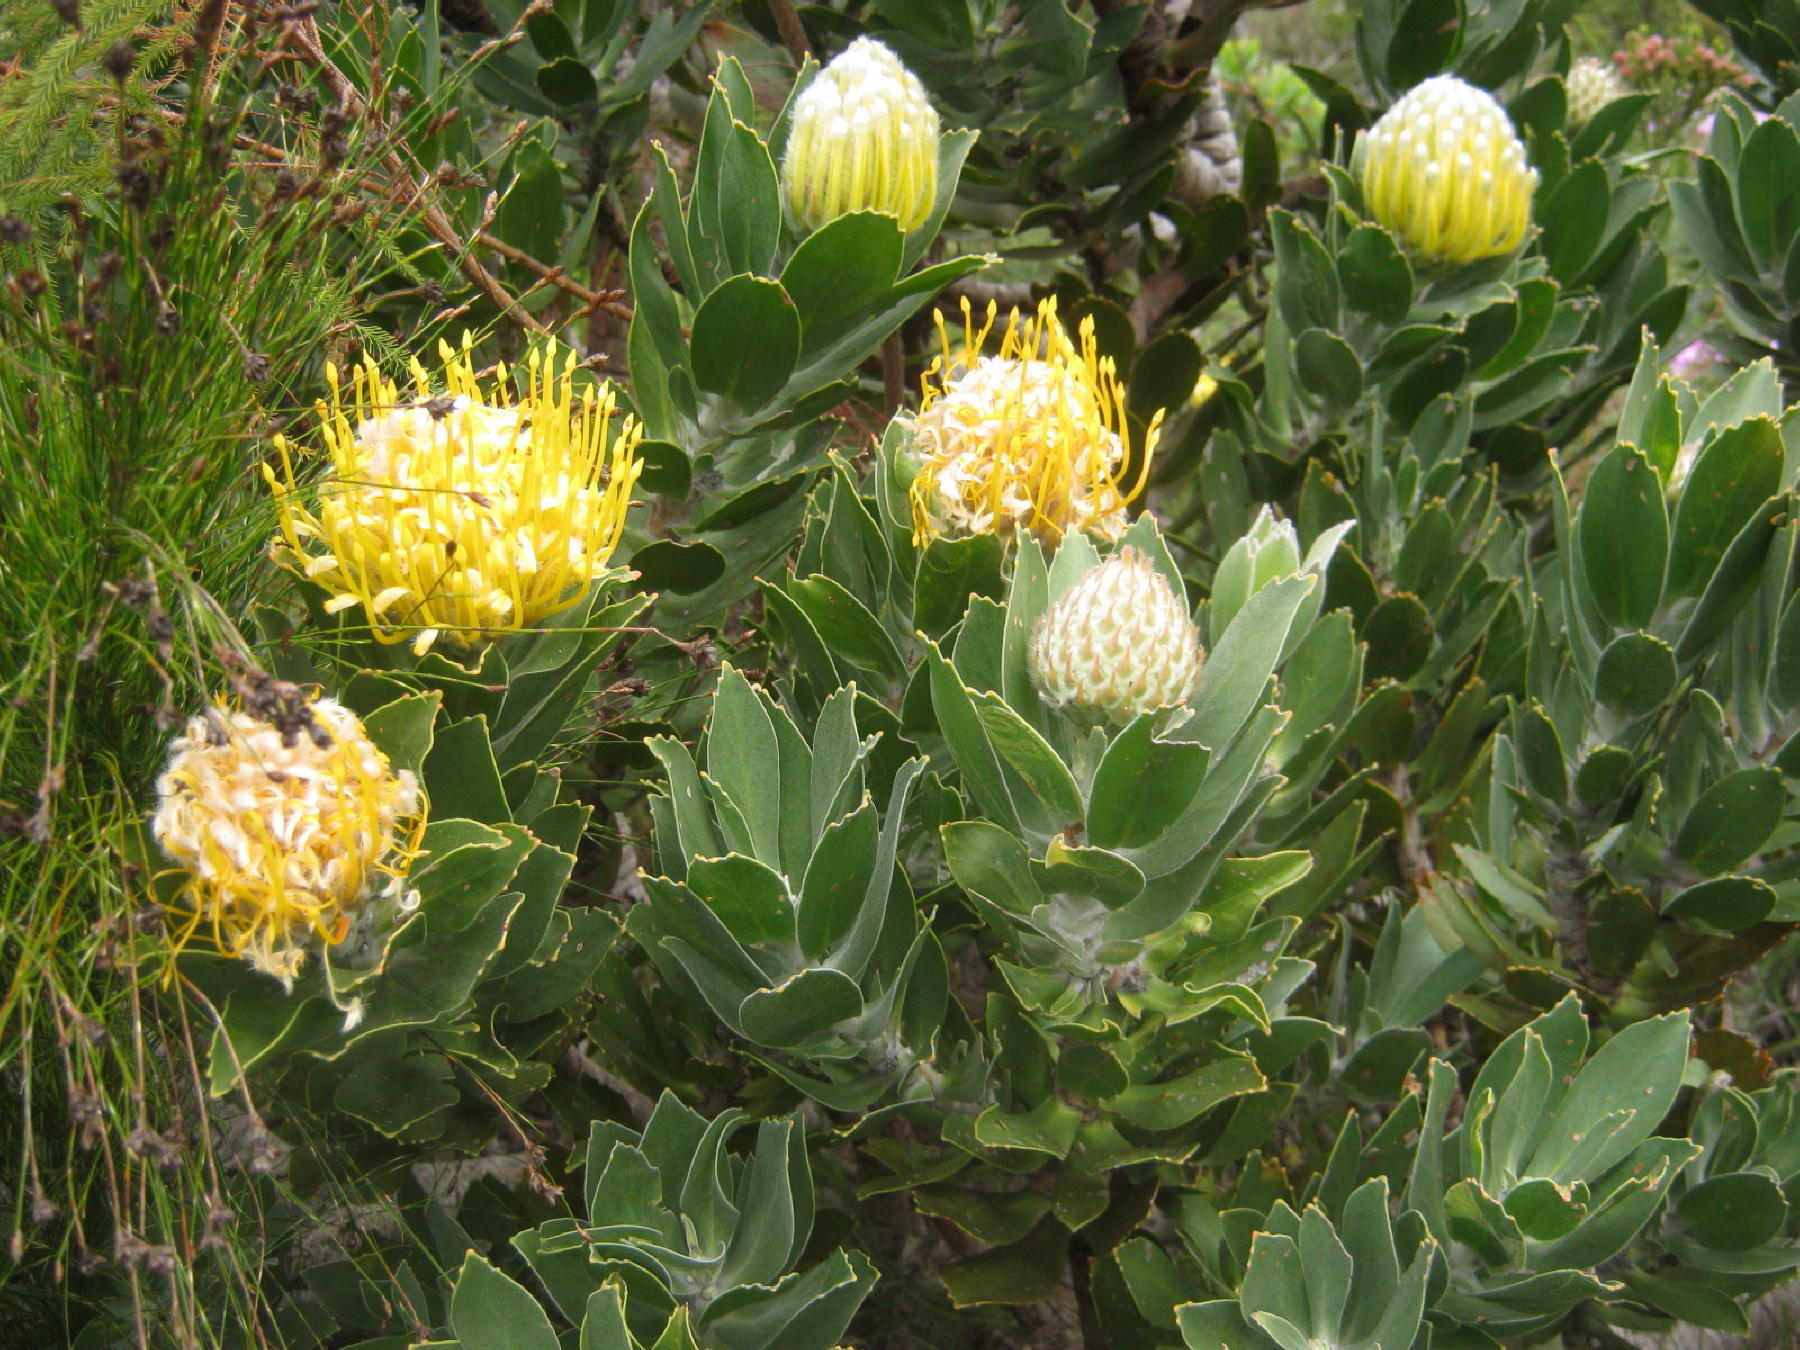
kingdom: Plantae
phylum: Tracheophyta
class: Magnoliopsida
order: Proteales
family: Proteaceae
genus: Leucospermum
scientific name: Leucospermum conocarpodendron
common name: Tree pincushion
